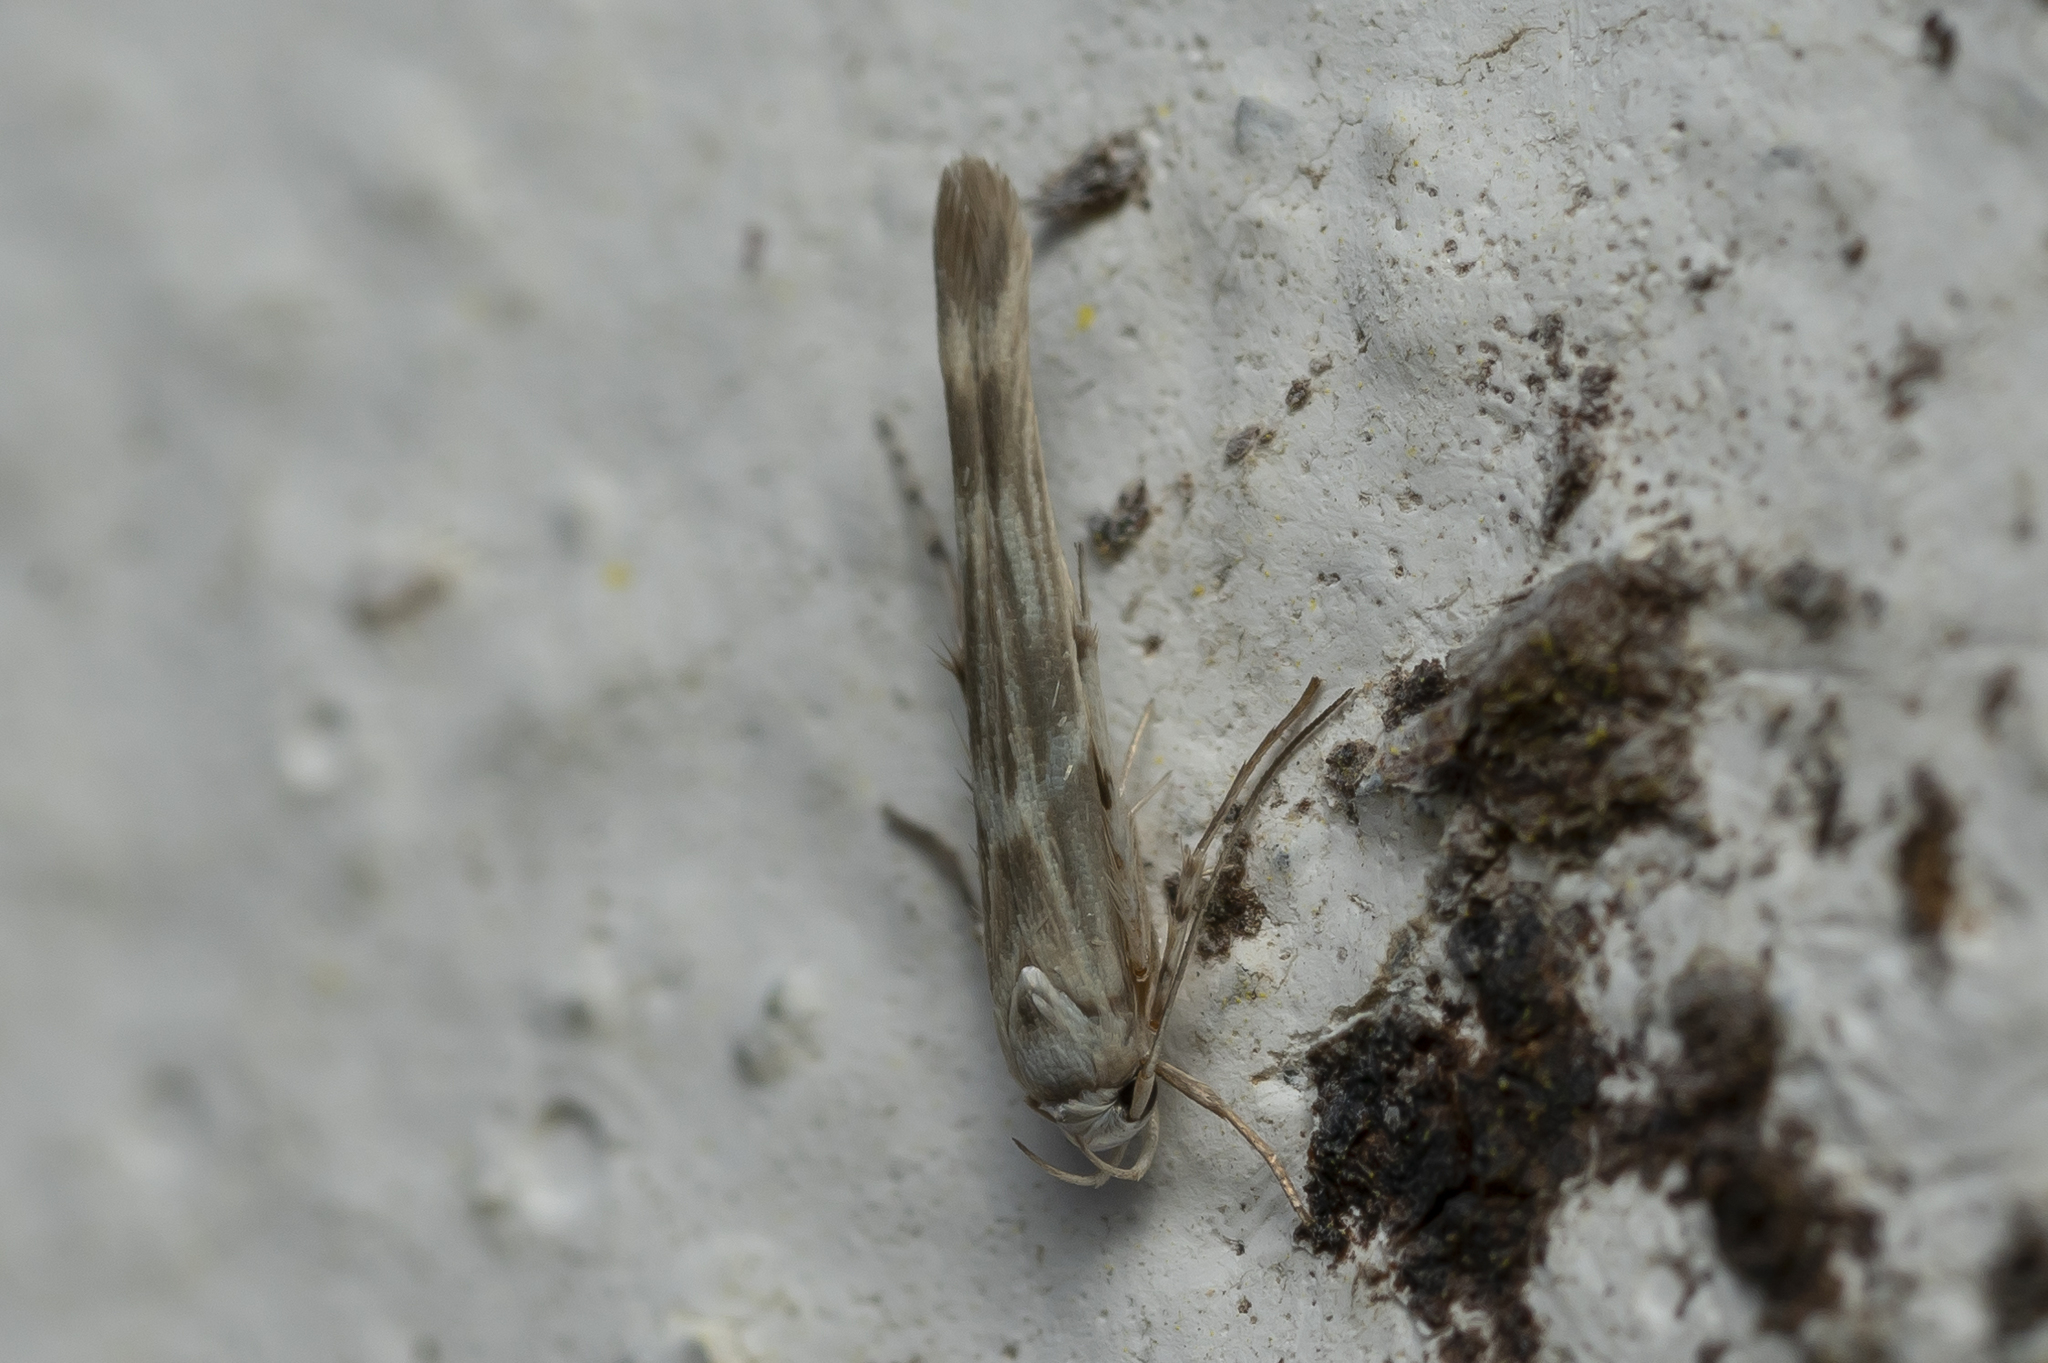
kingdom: Animalia
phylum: Arthropoda
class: Insecta
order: Lepidoptera
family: Gelechiidae
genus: Palumbina
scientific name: Palumbina guerinii
